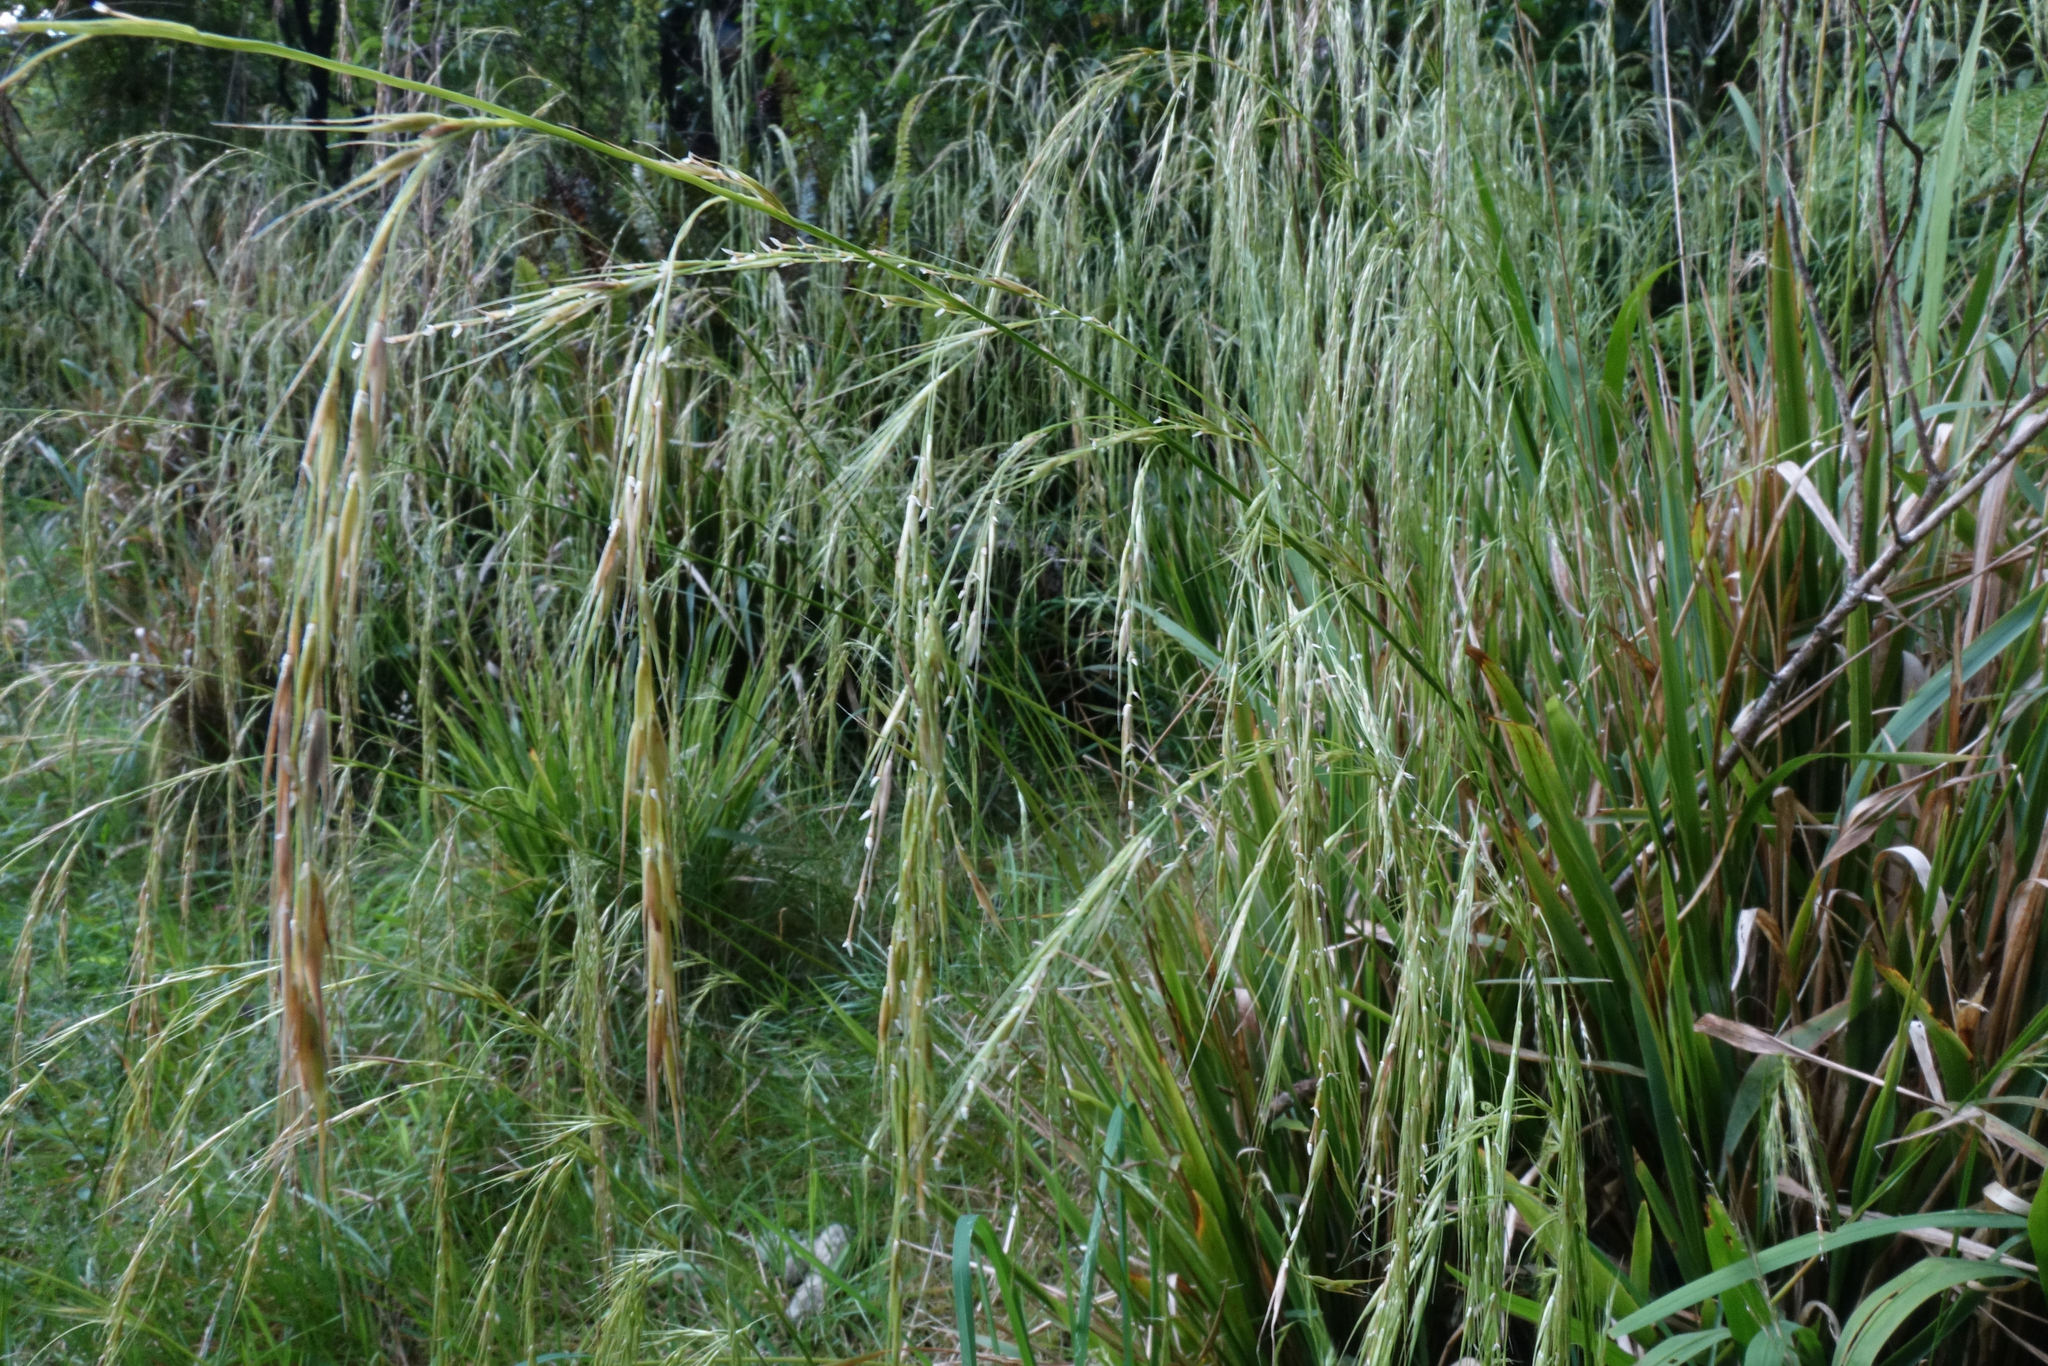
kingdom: Plantae
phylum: Tracheophyta
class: Liliopsida
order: Poales
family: Poaceae
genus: Ehrharta
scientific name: Ehrharta diplax
